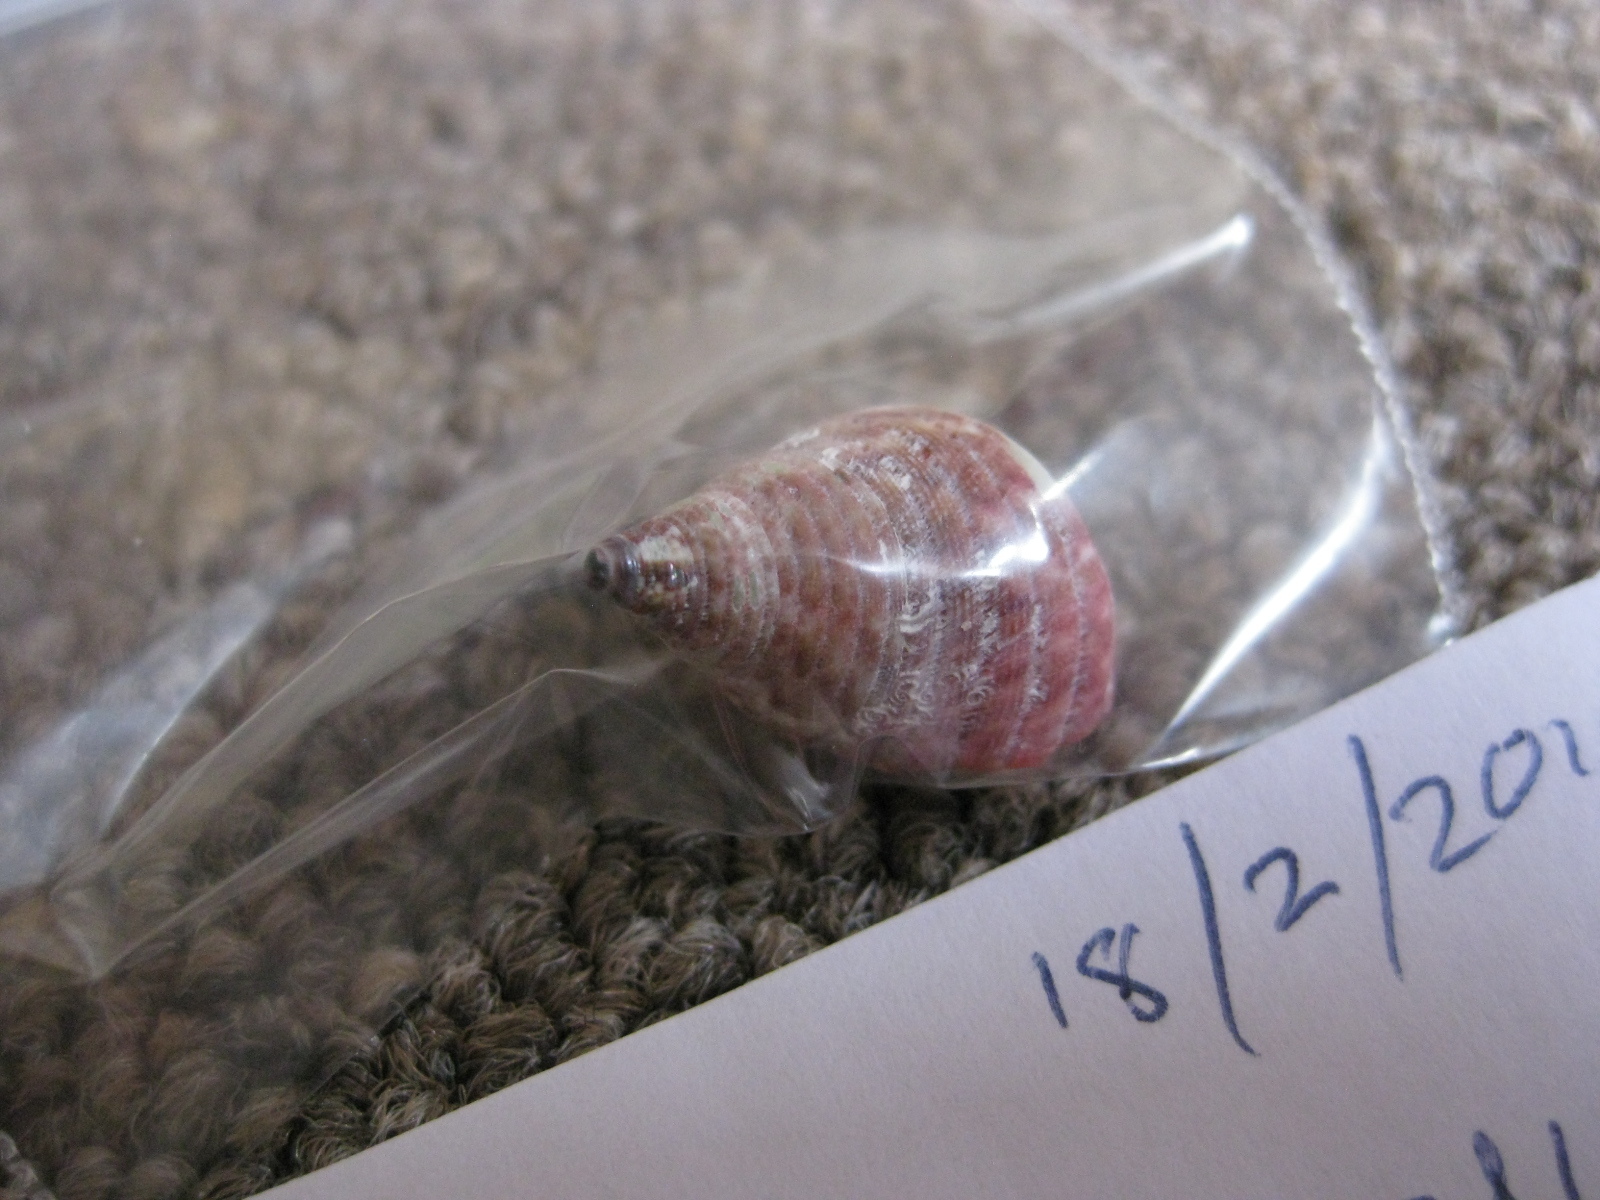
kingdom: Animalia
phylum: Mollusca
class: Gastropoda
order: Trochida
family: Trochidae
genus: Micrelenchus
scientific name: Micrelenchus purpureus
